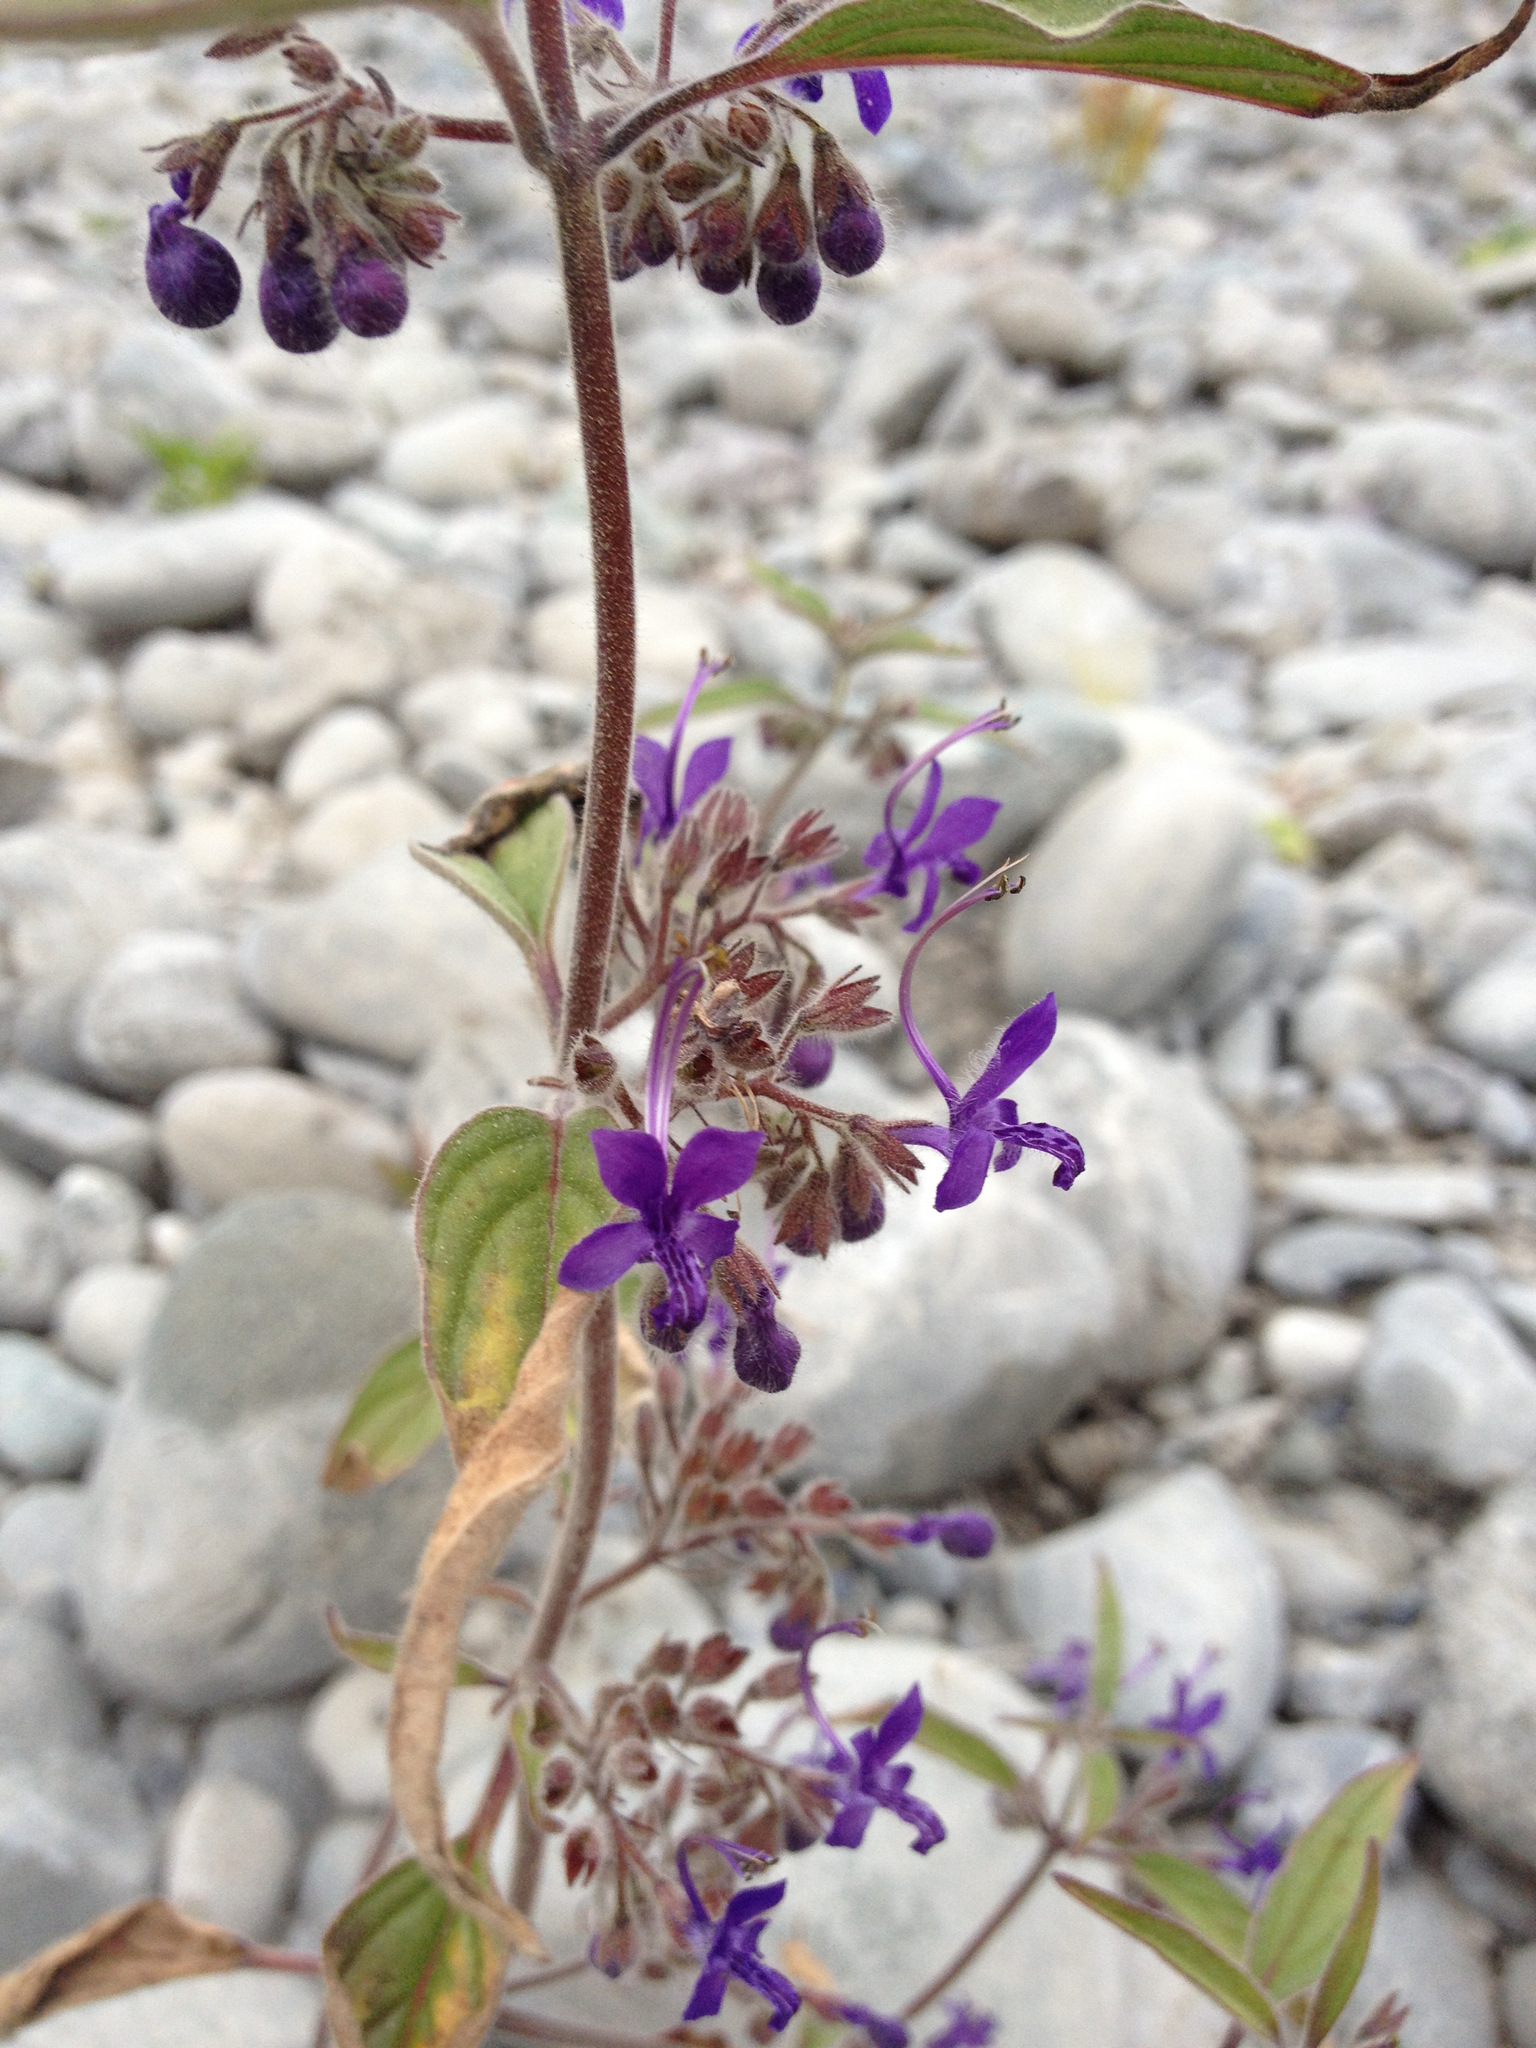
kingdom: Plantae
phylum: Tracheophyta
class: Magnoliopsida
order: Lamiales
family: Lamiaceae
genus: Trichostema
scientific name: Trichostema laxum
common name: Turpentine weed
